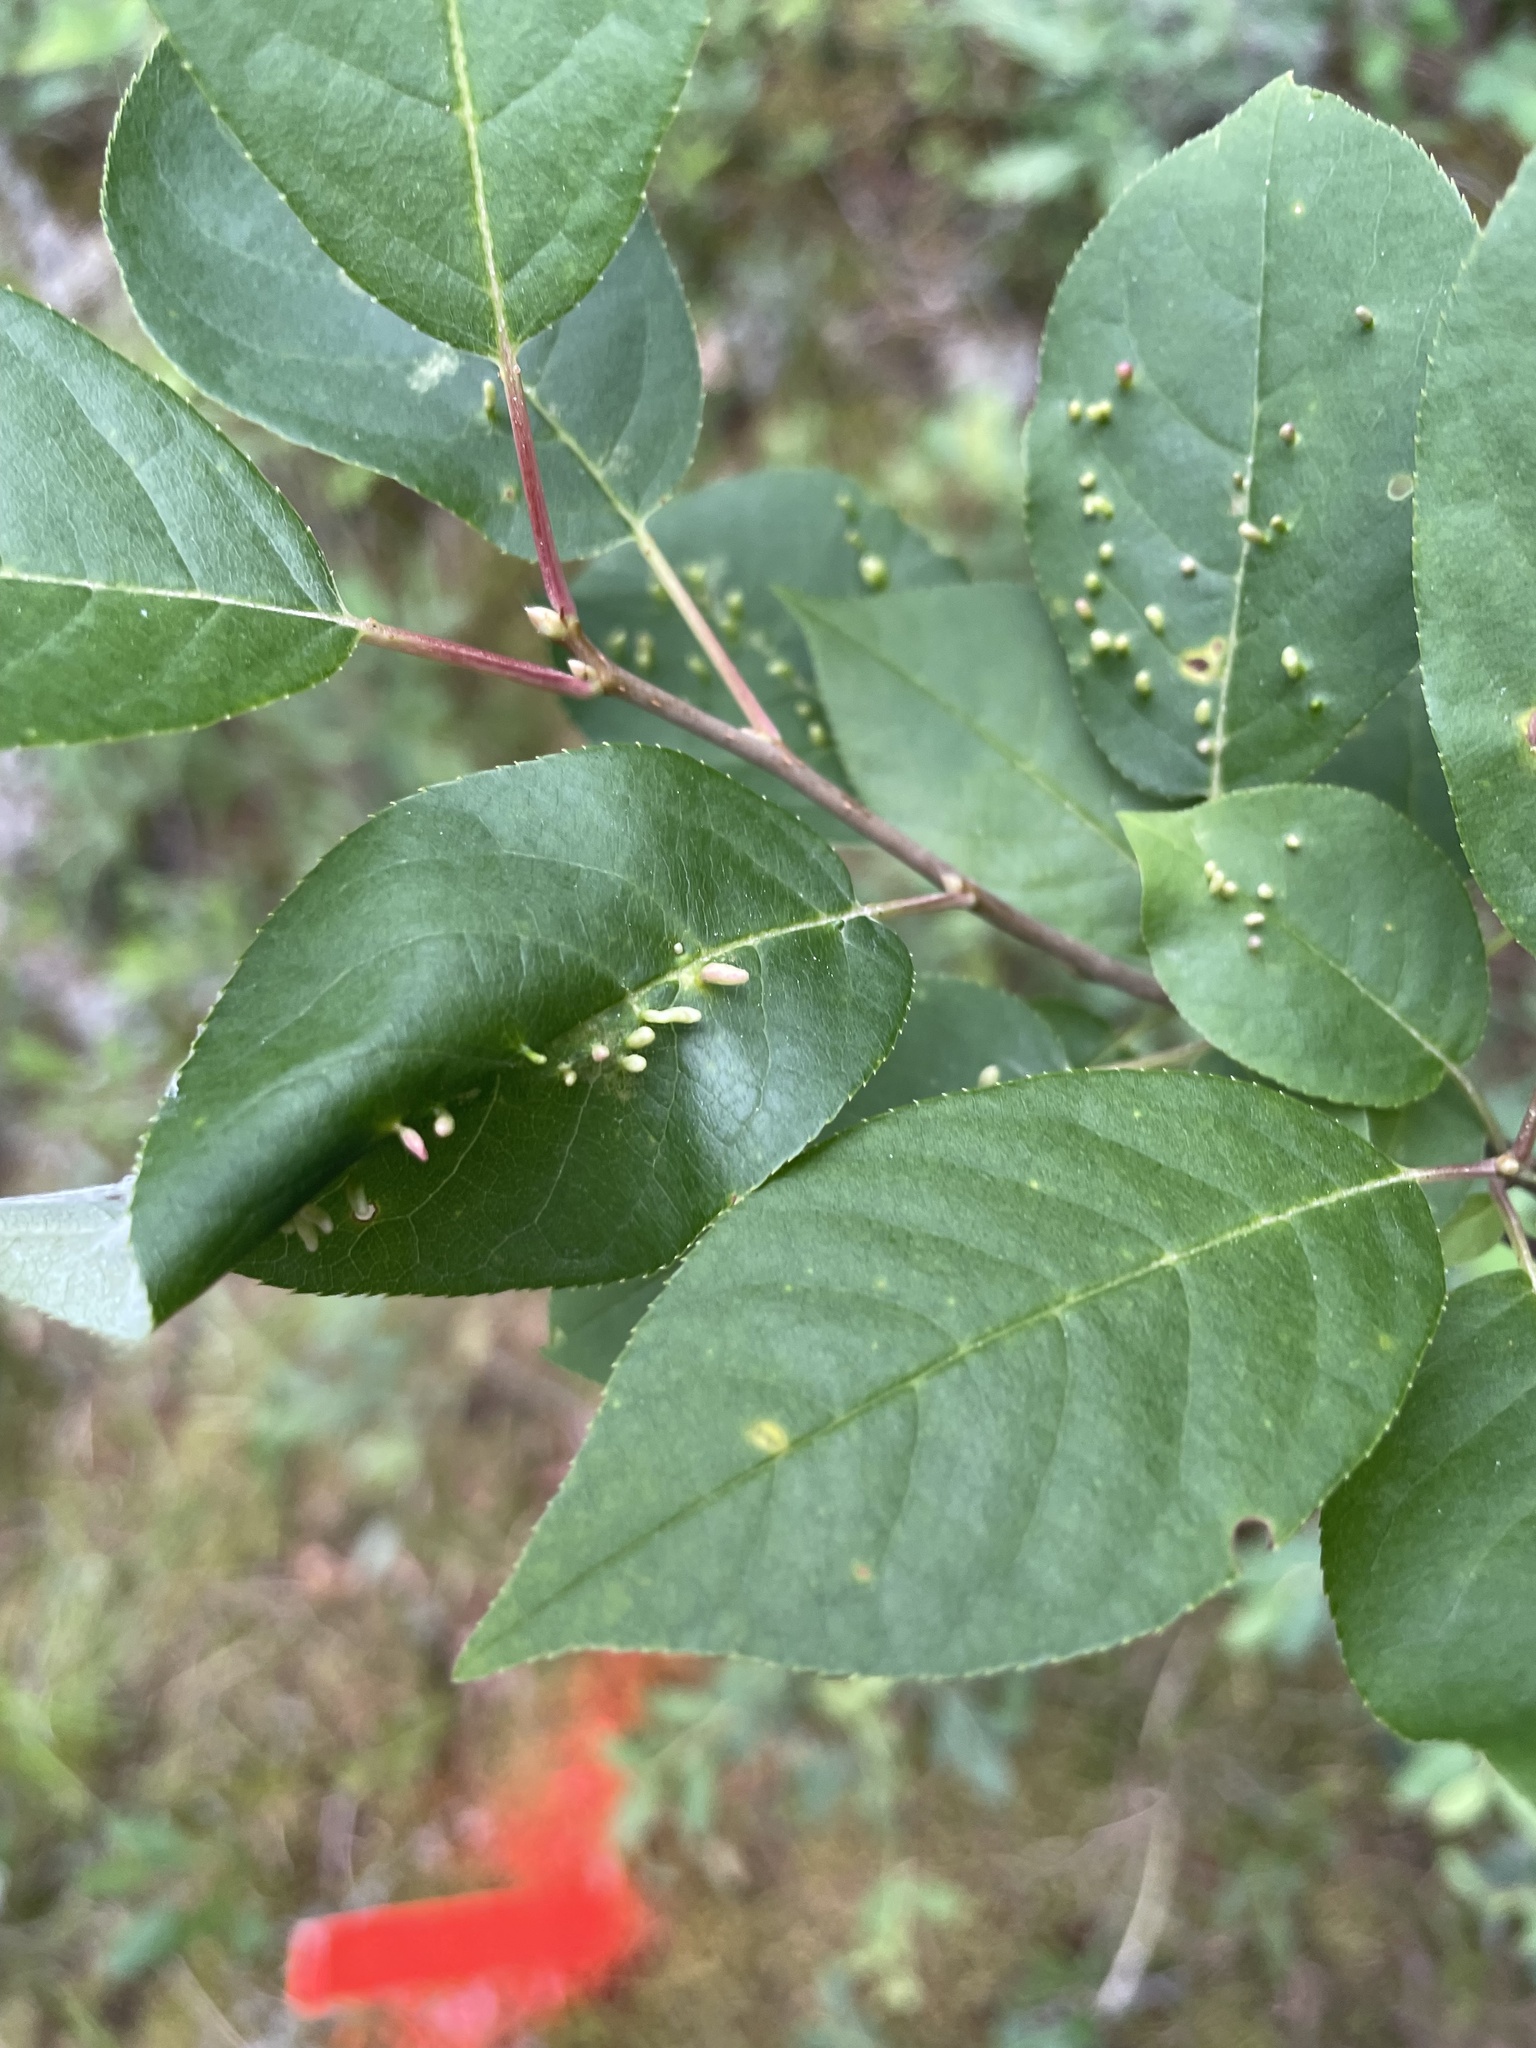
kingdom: Animalia
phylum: Arthropoda
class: Arachnida
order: Trombidiformes
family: Eriophyidae
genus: Eriophyes
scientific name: Eriophyes emarginatae
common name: Plum leaf gall mite
